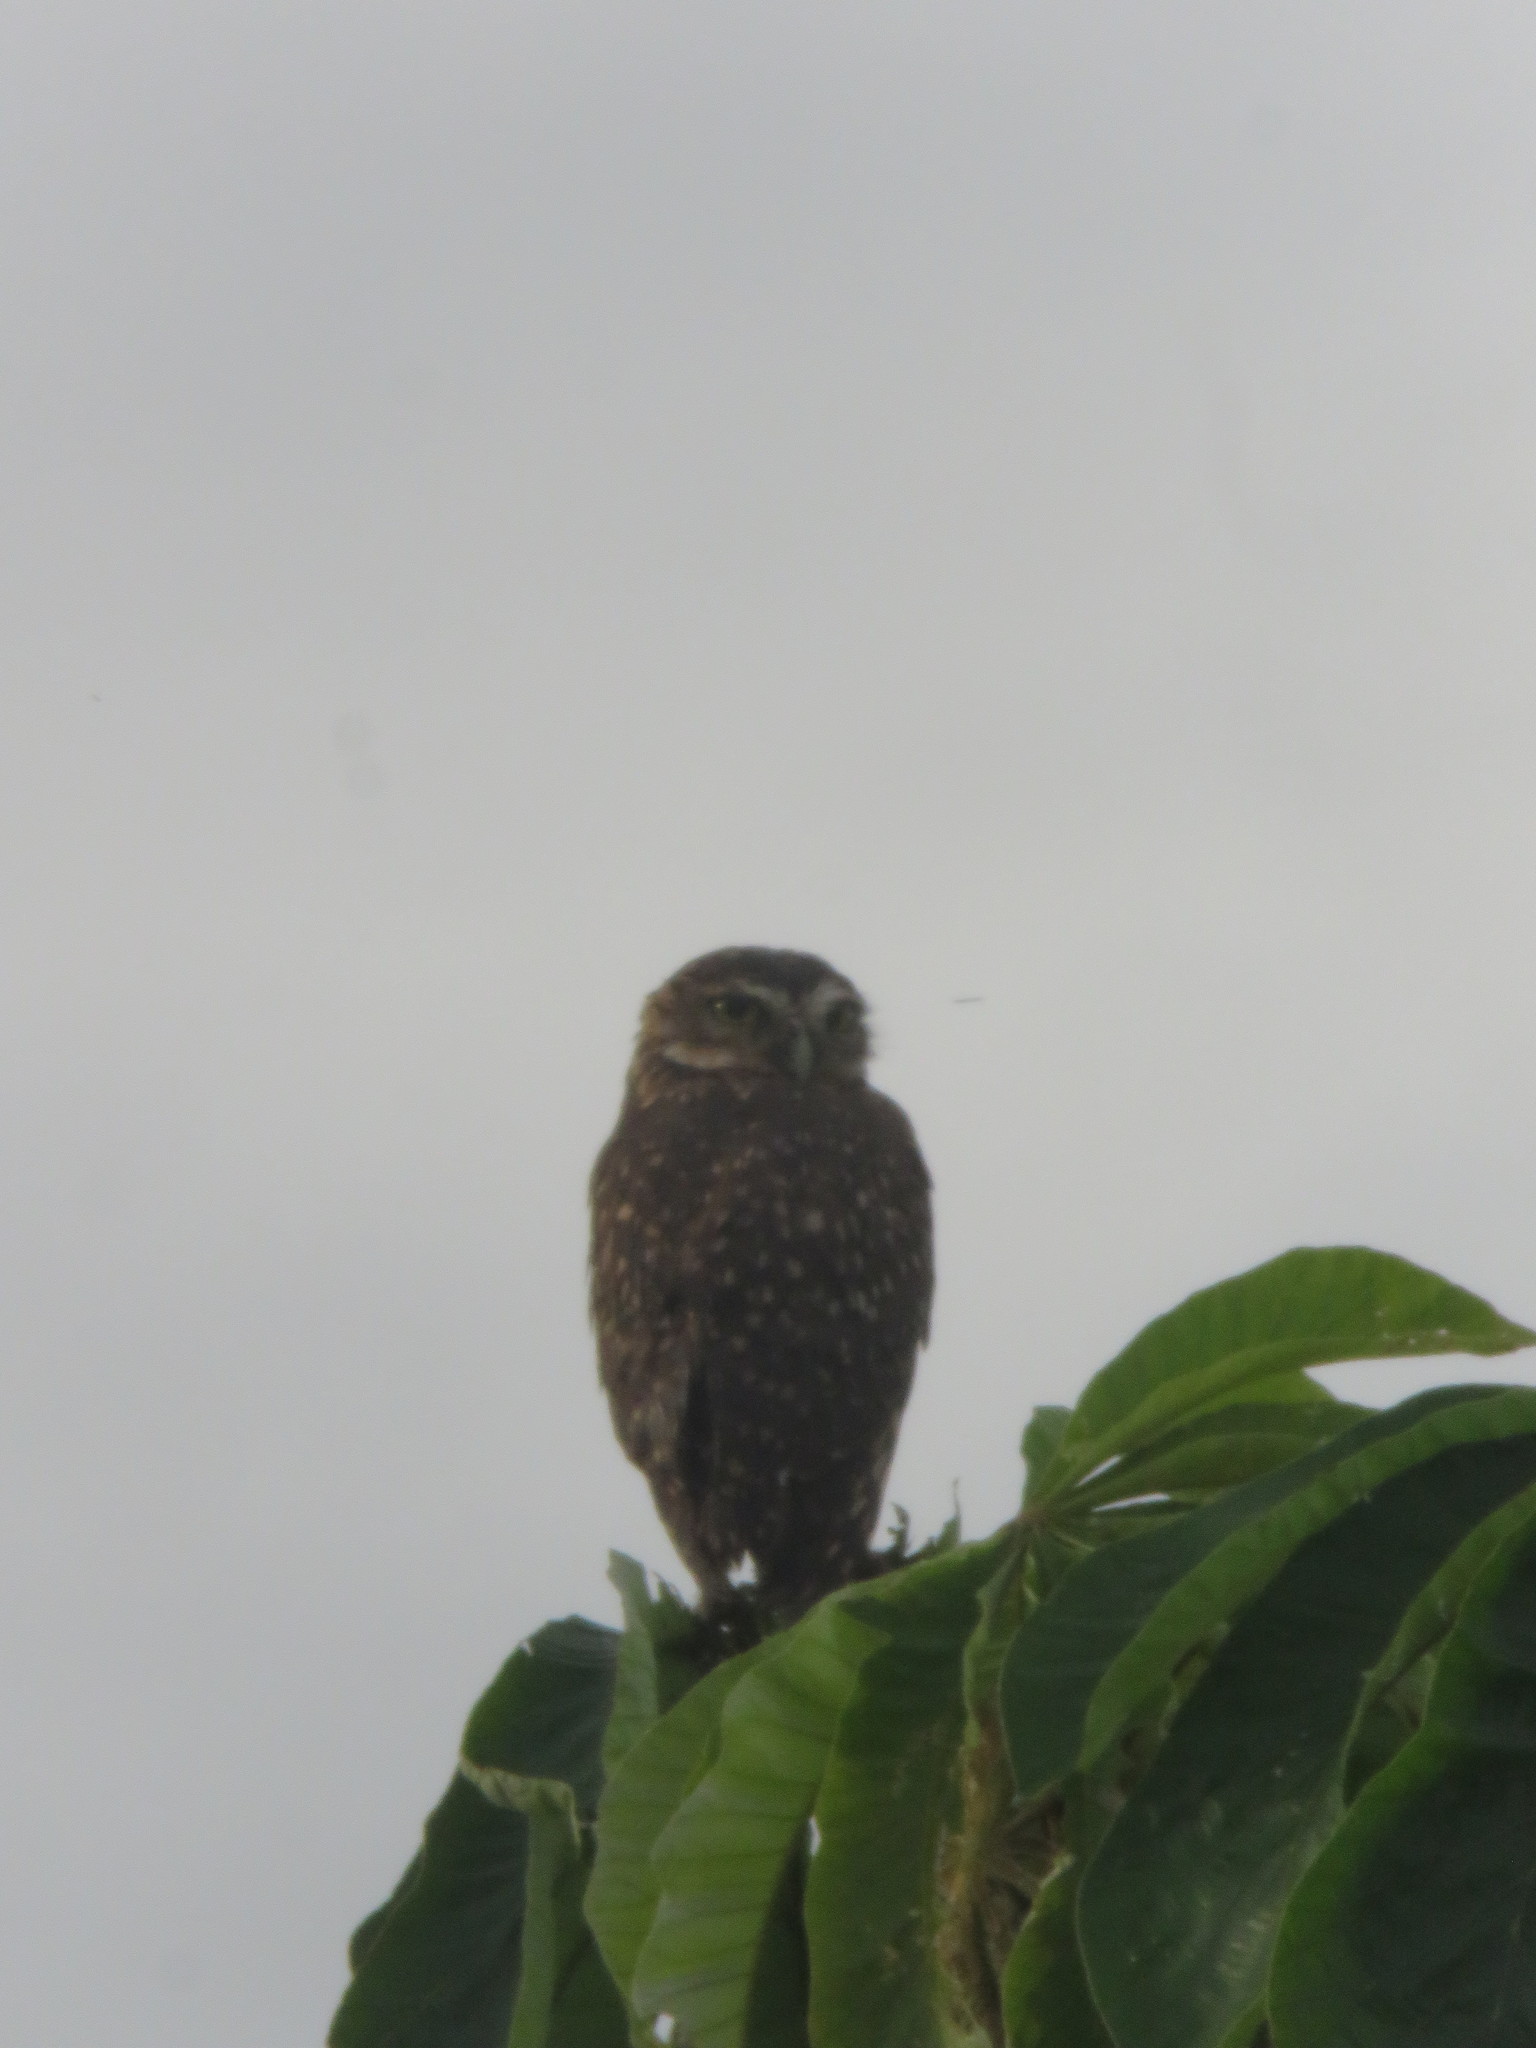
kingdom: Animalia
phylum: Chordata
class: Aves
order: Strigiformes
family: Strigidae
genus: Athene
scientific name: Athene cunicularia
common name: Burrowing owl
